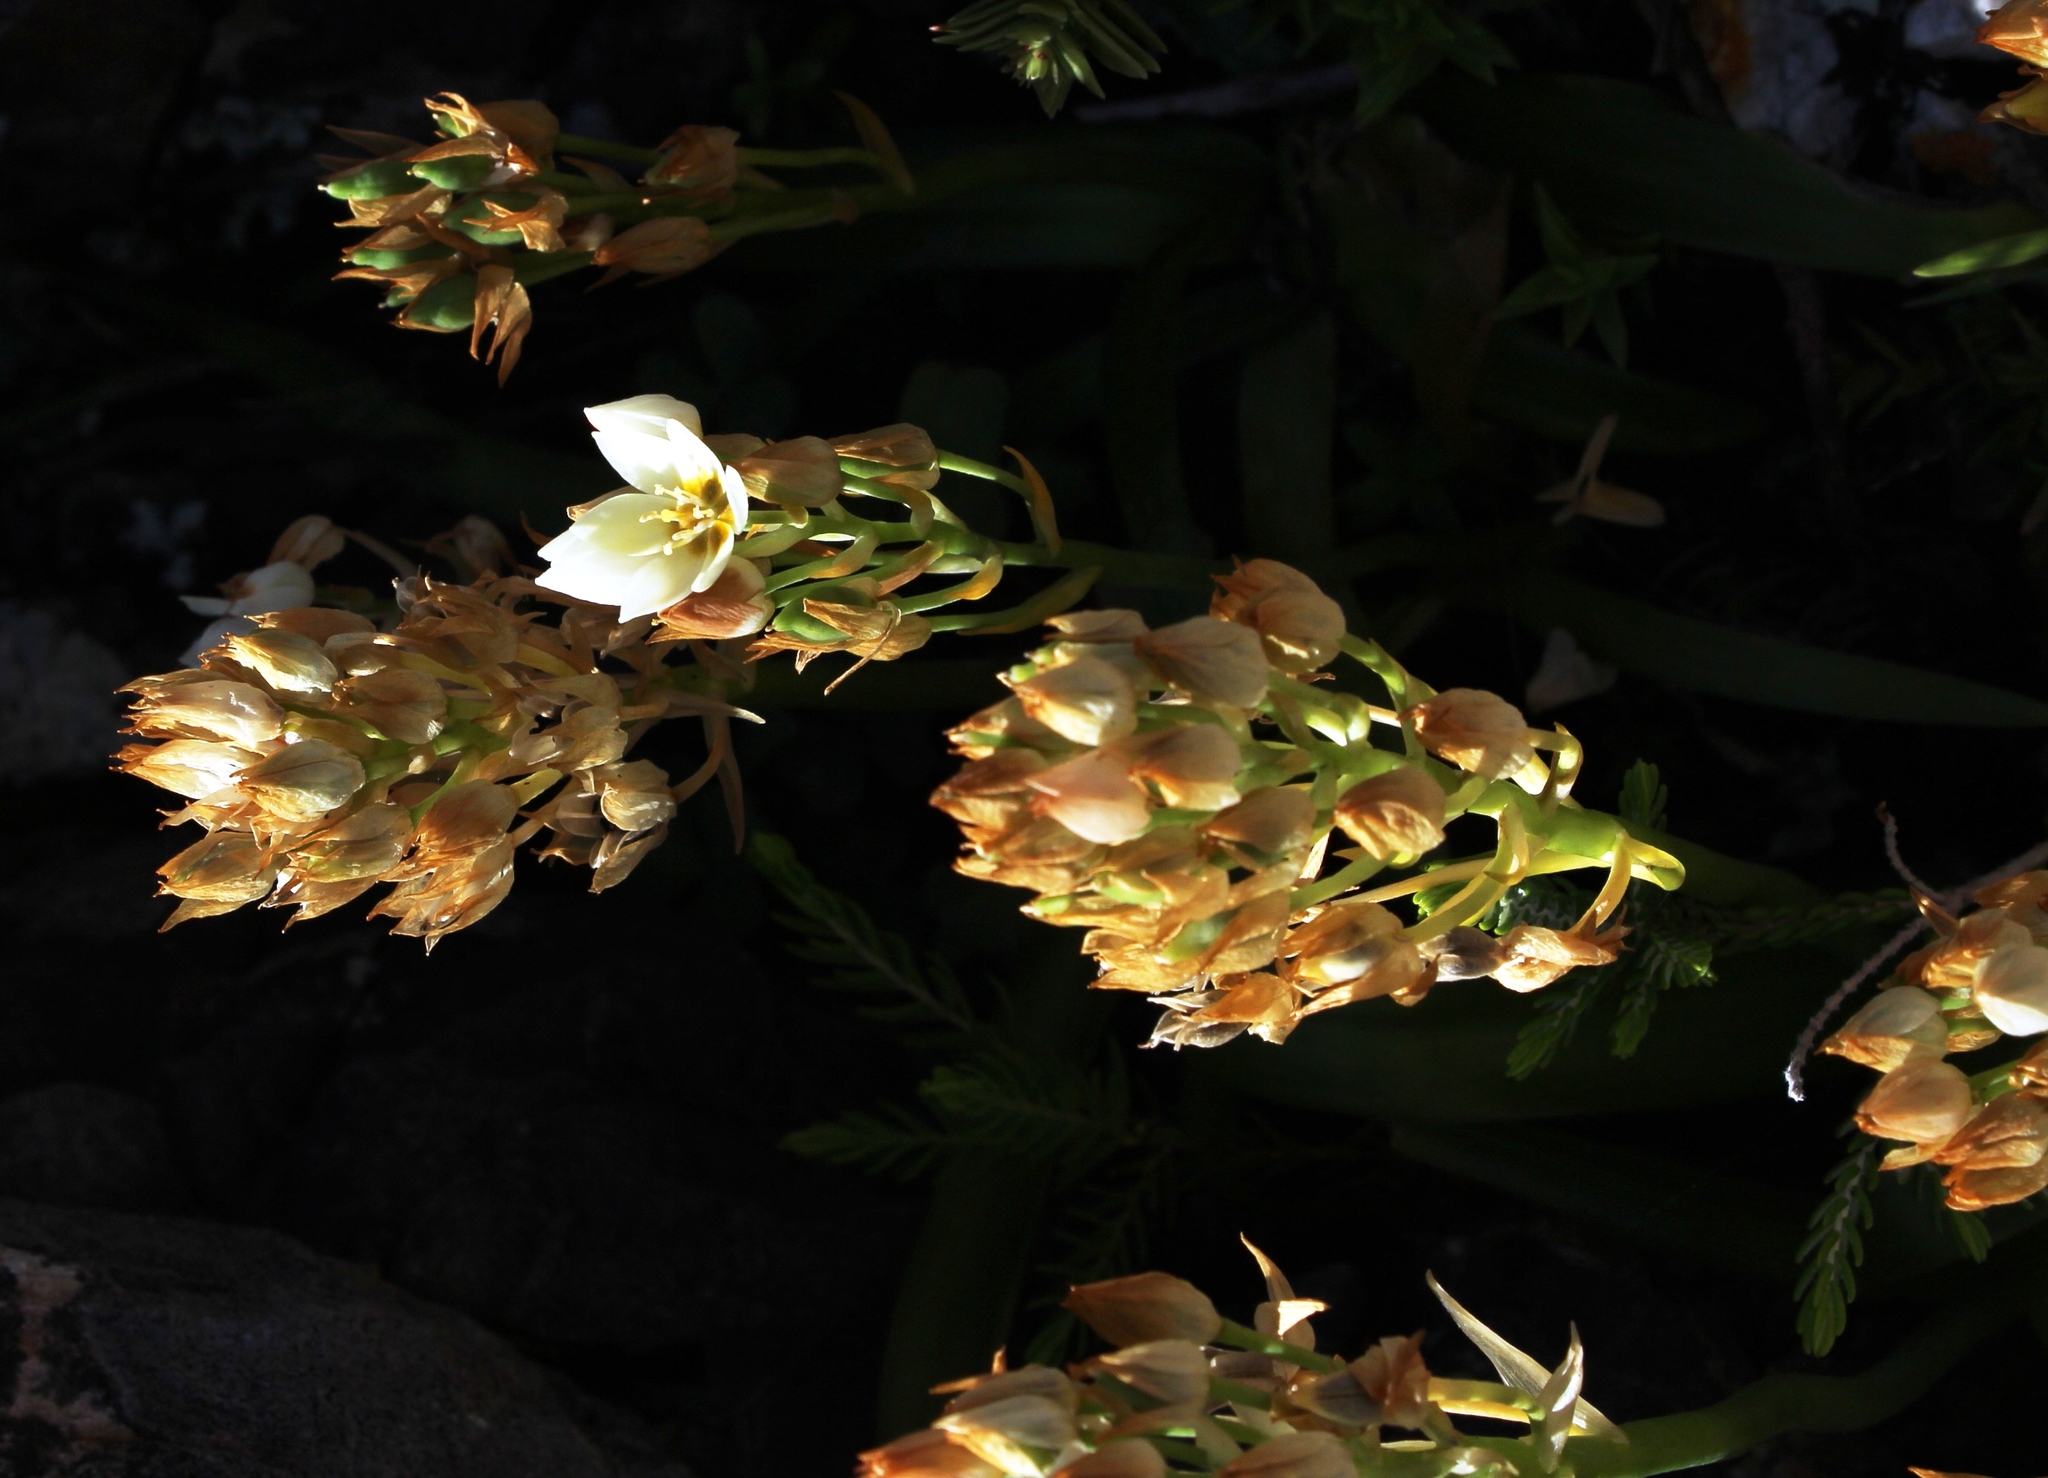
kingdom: Plantae
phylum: Tracheophyta
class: Liliopsida
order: Asparagales
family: Asparagaceae
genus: Ornithogalum
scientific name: Ornithogalum dubium
